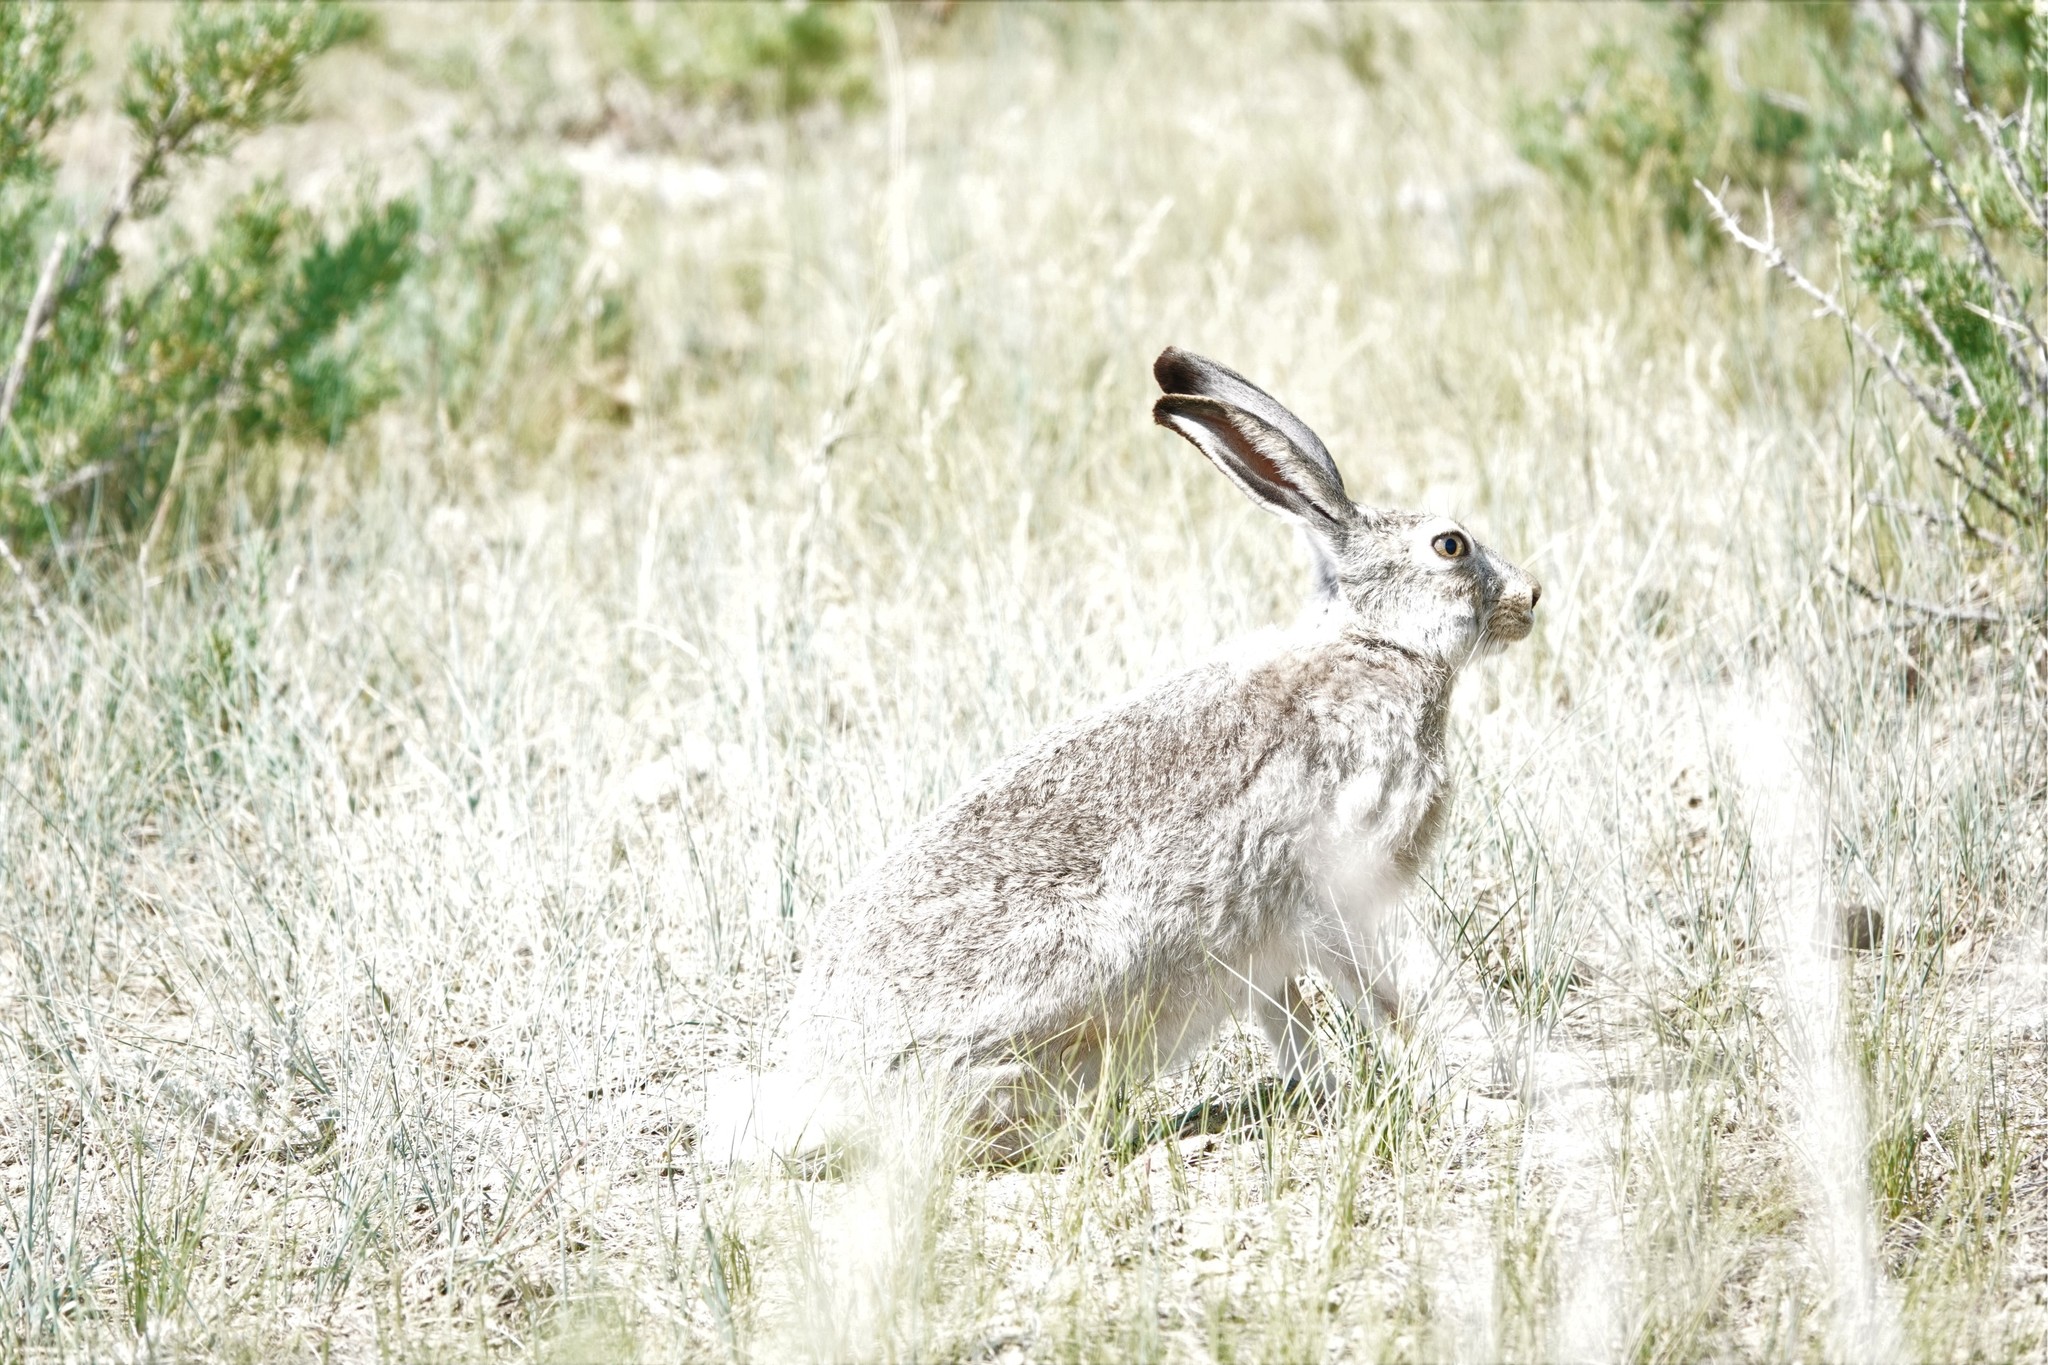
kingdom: Animalia
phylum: Chordata
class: Mammalia
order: Lagomorpha
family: Leporidae
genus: Lepus
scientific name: Lepus townsendii
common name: White-tailed jackrabbit
